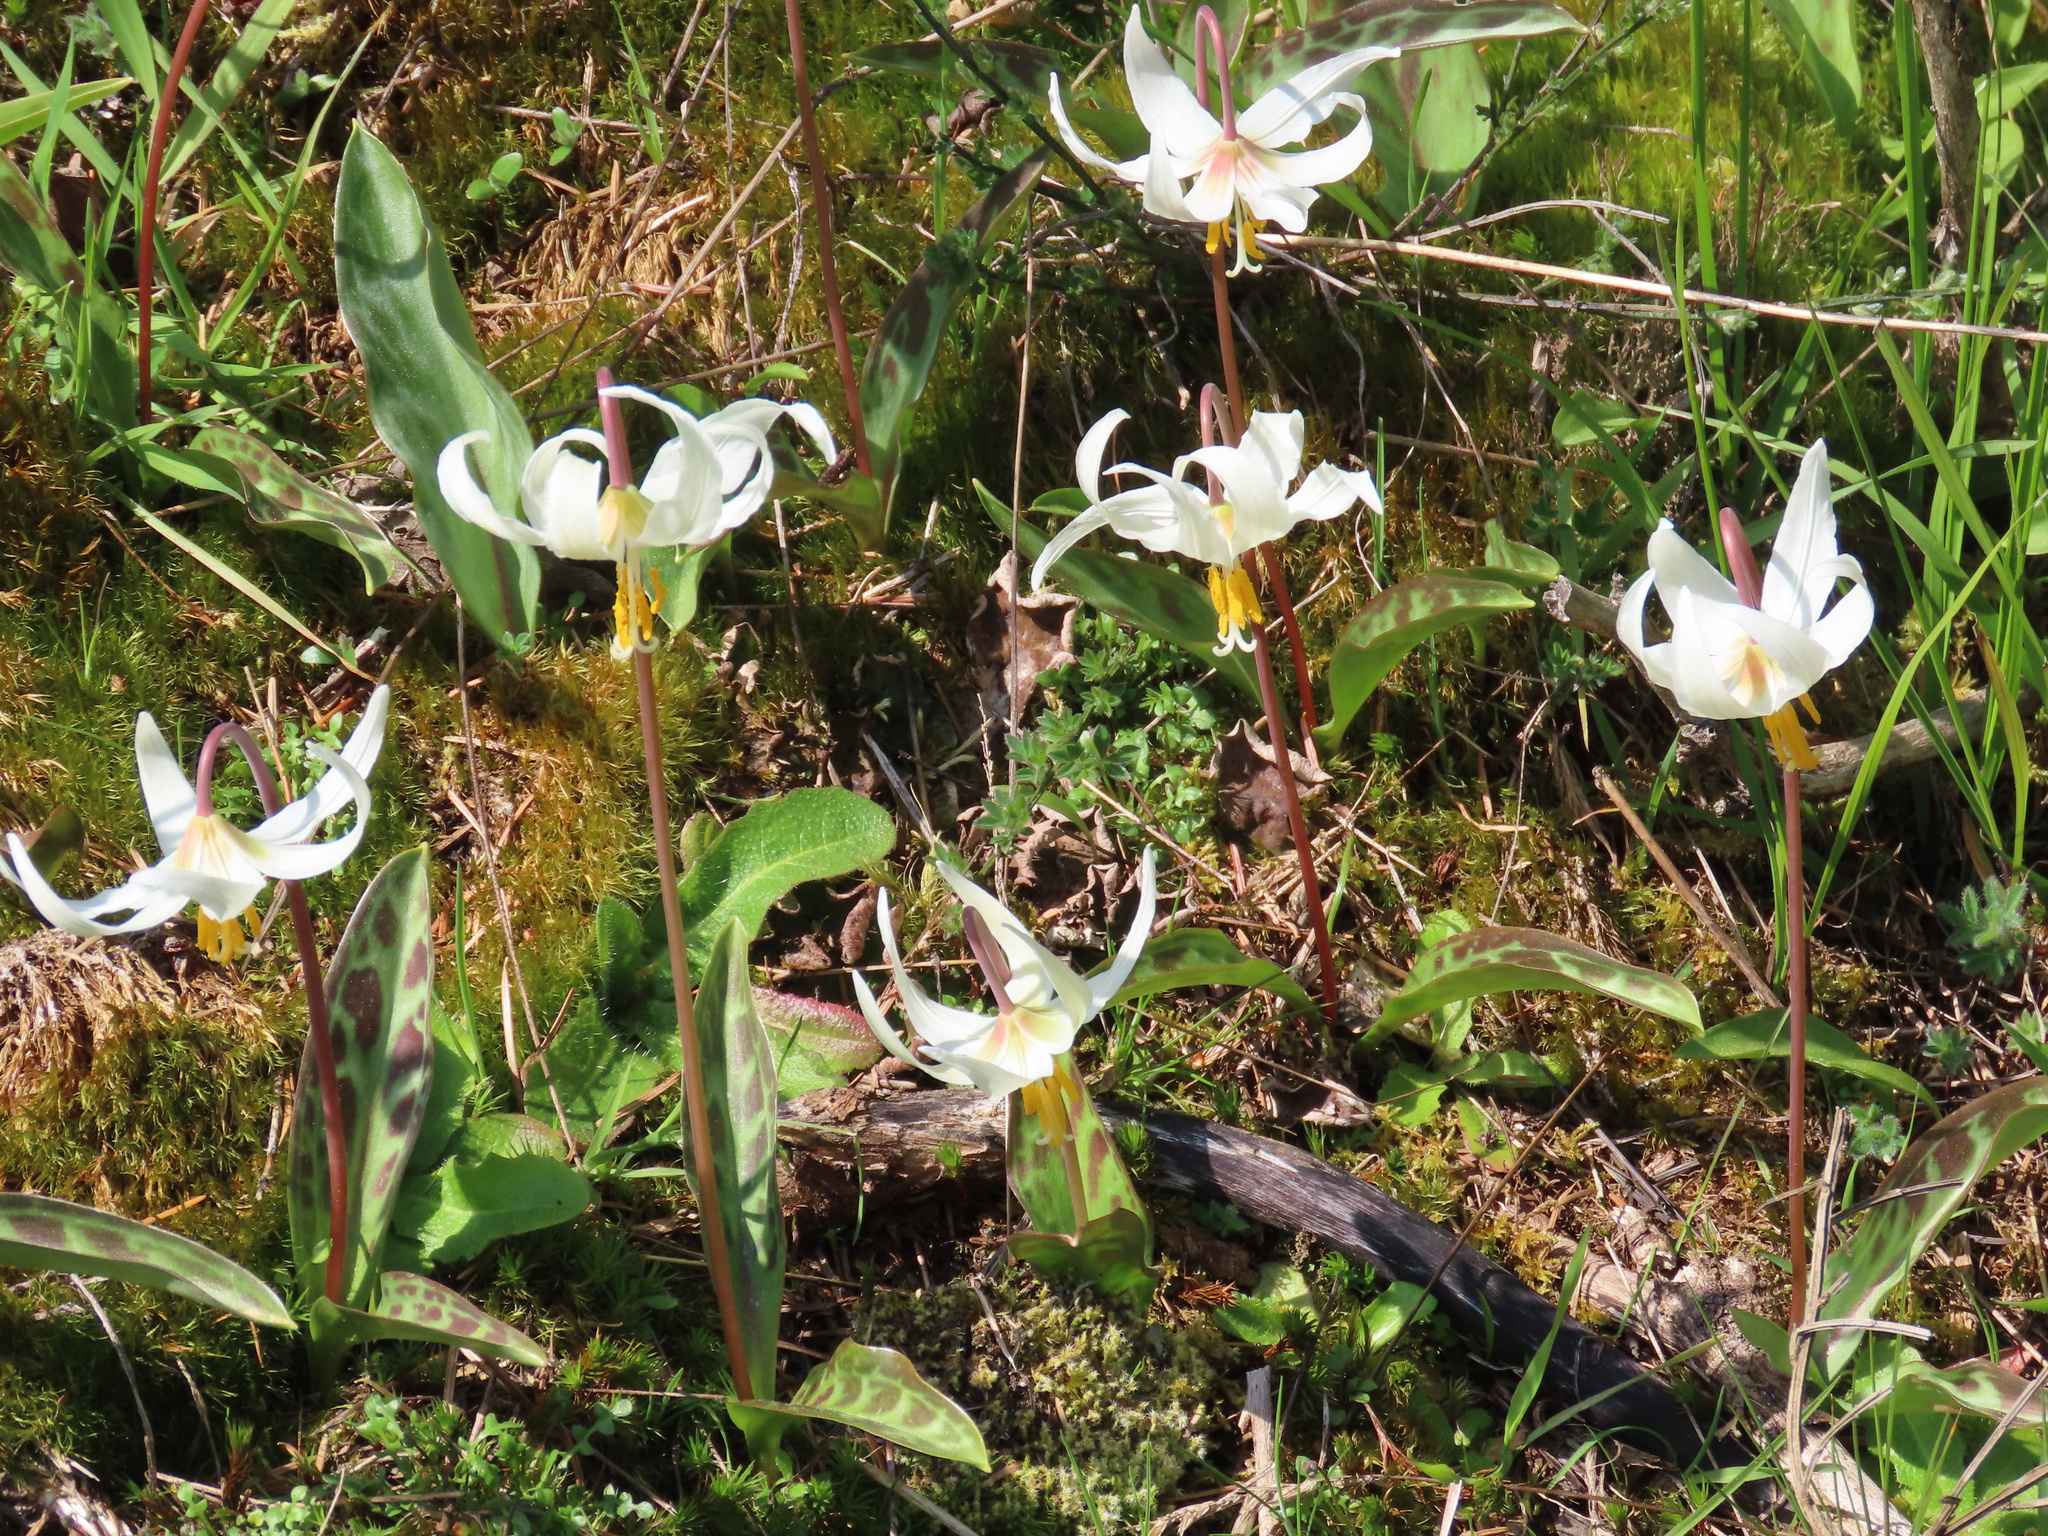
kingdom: Plantae
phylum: Tracheophyta
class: Liliopsida
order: Liliales
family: Liliaceae
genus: Erythronium
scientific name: Erythronium oregonum
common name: Giant adder's-tongue
